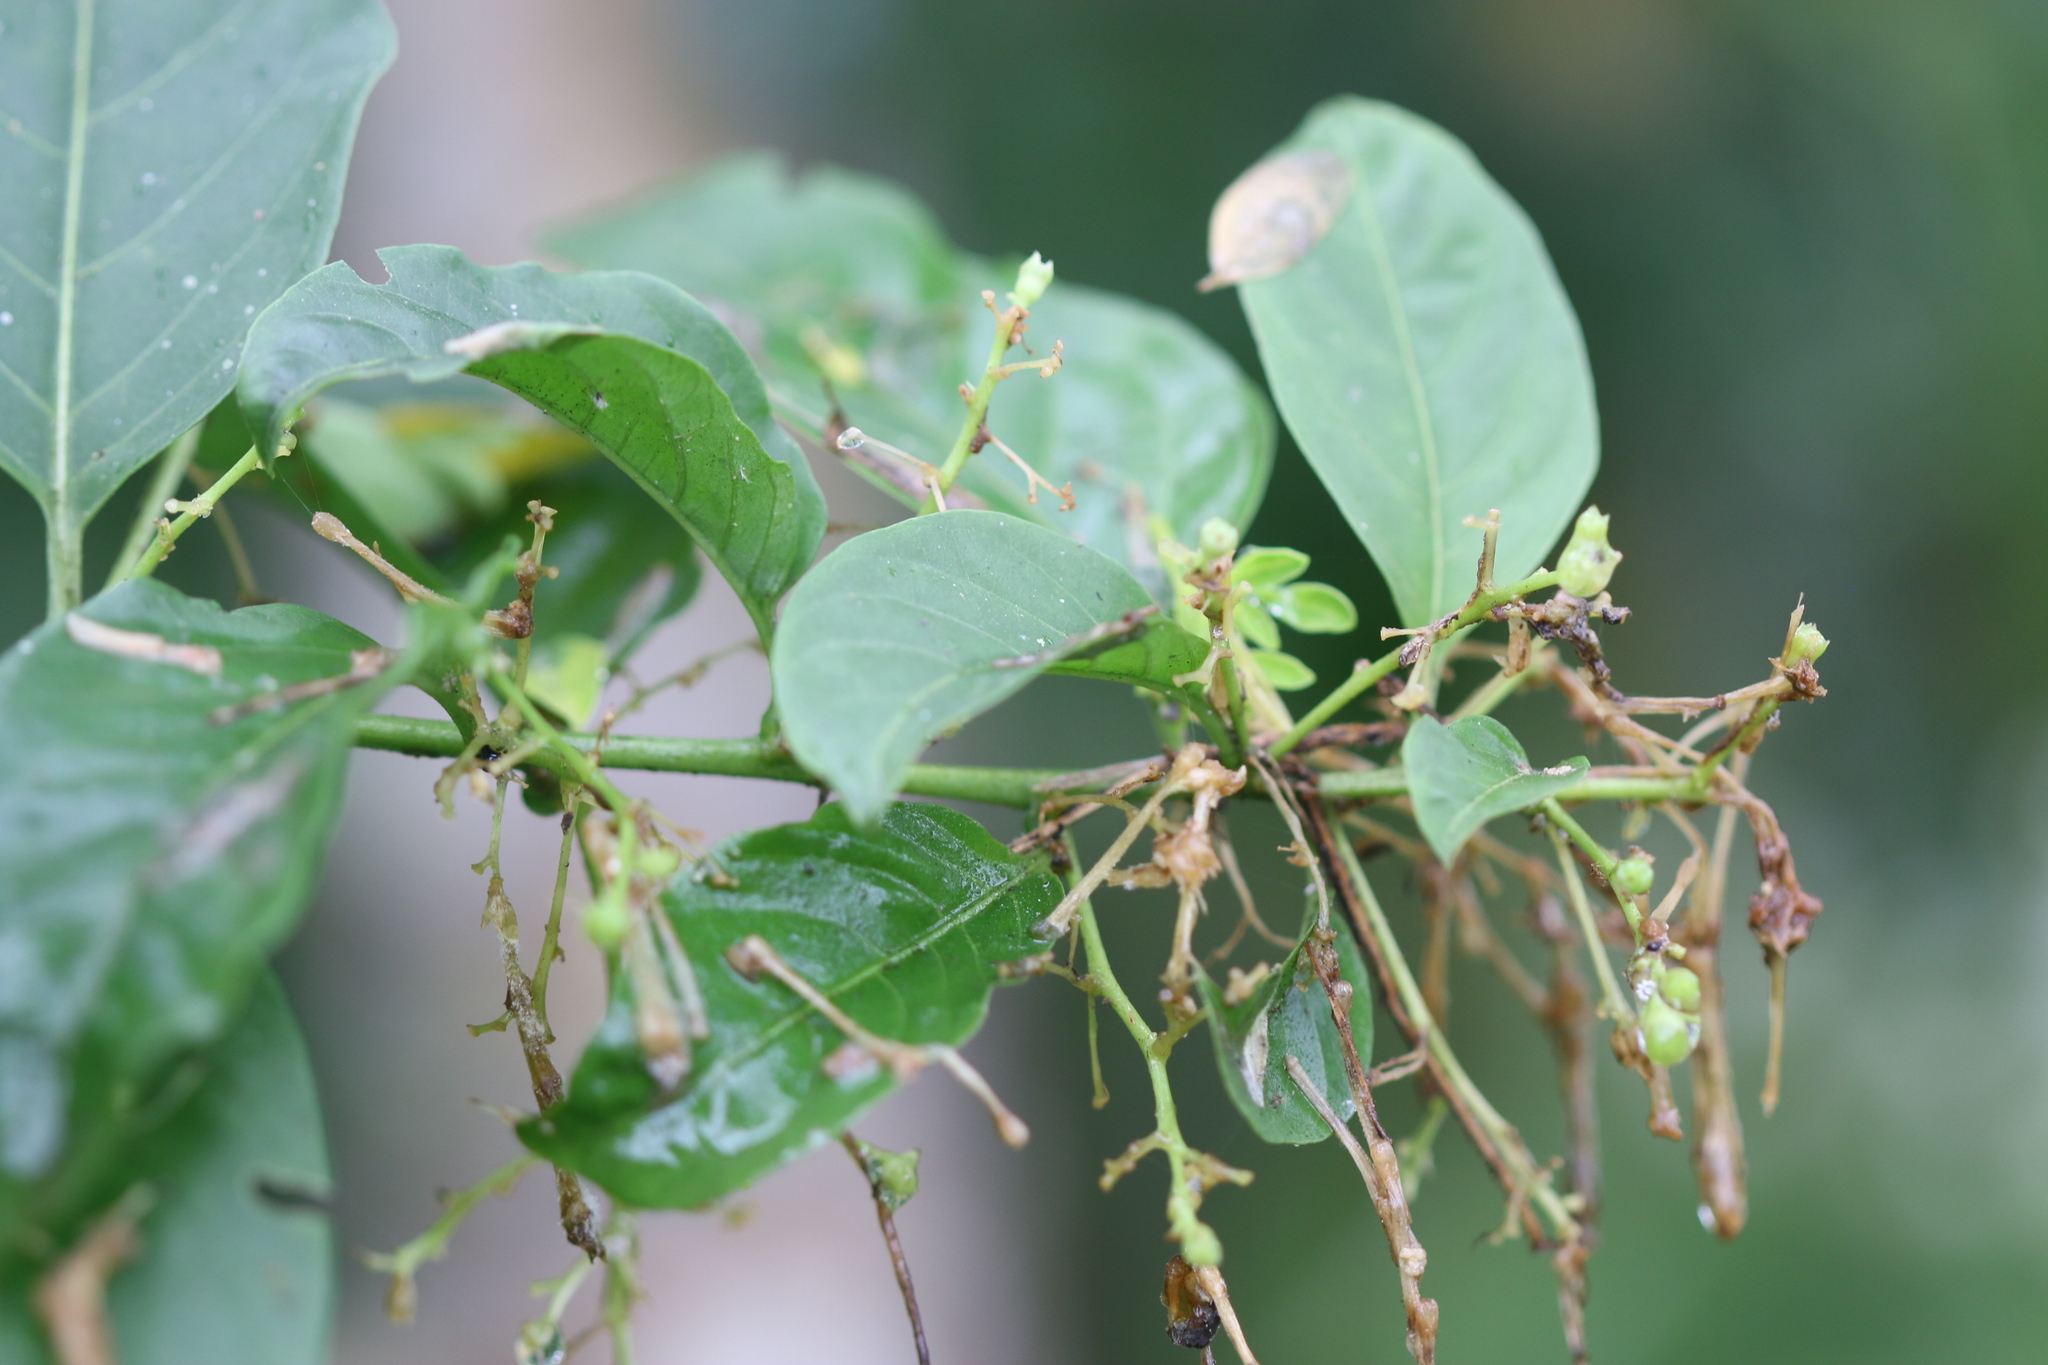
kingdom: Plantae
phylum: Tracheophyta
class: Magnoliopsida
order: Solanales
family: Solanaceae
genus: Cestrum
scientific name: Cestrum nocturnum
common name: Night jessamine
